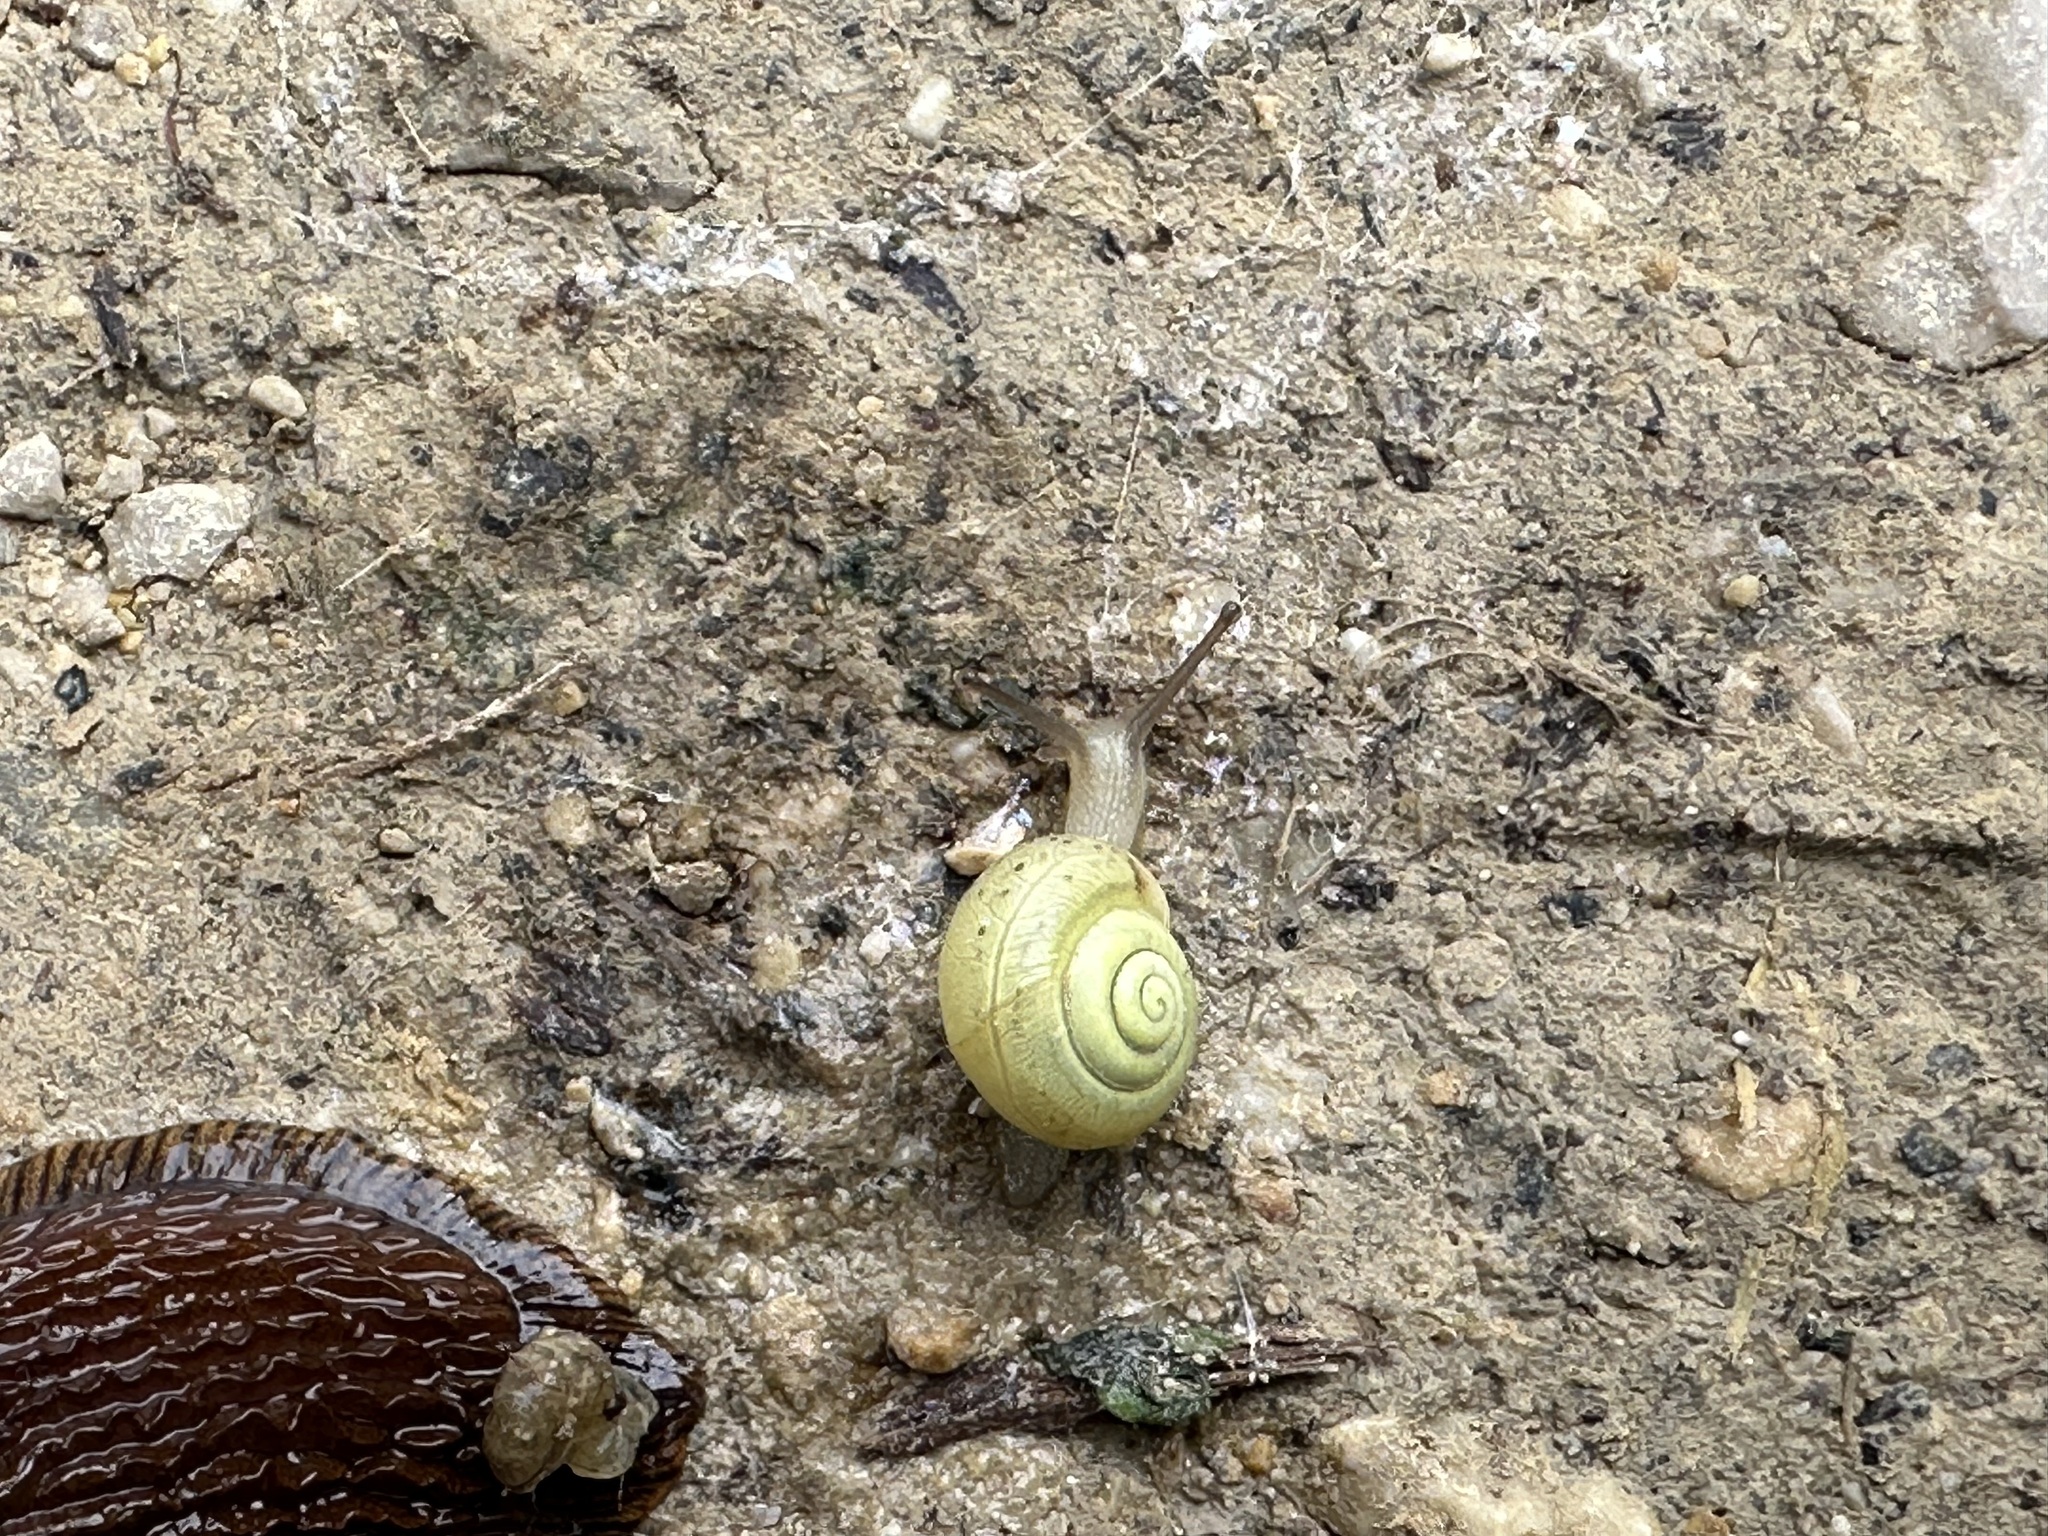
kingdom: Animalia
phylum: Mollusca
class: Gastropoda
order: Stylommatophora
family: Camaenidae
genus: Fruticicola
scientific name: Fruticicola fruticum
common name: Bush snail
